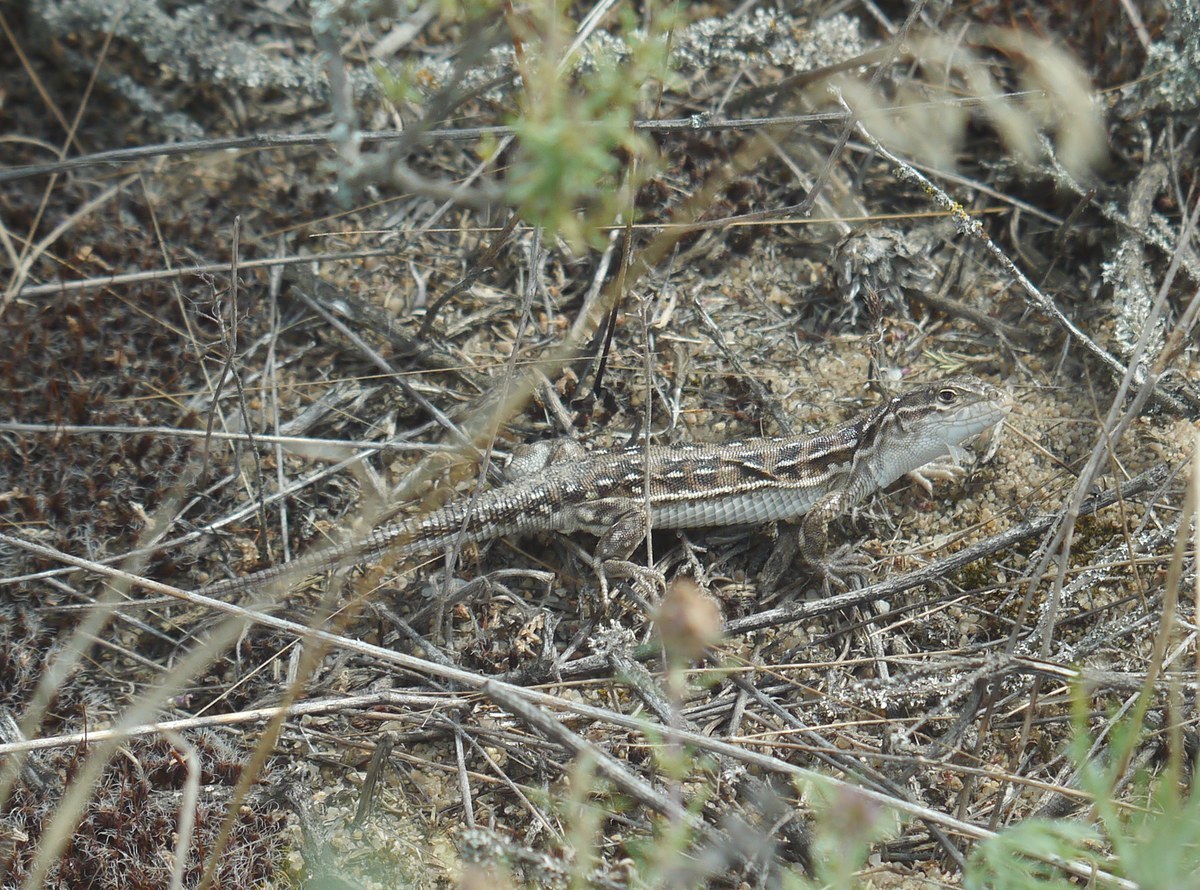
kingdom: Animalia
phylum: Chordata
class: Squamata
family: Lacertidae
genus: Eremias
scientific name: Eremias arguta
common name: Racerunner
